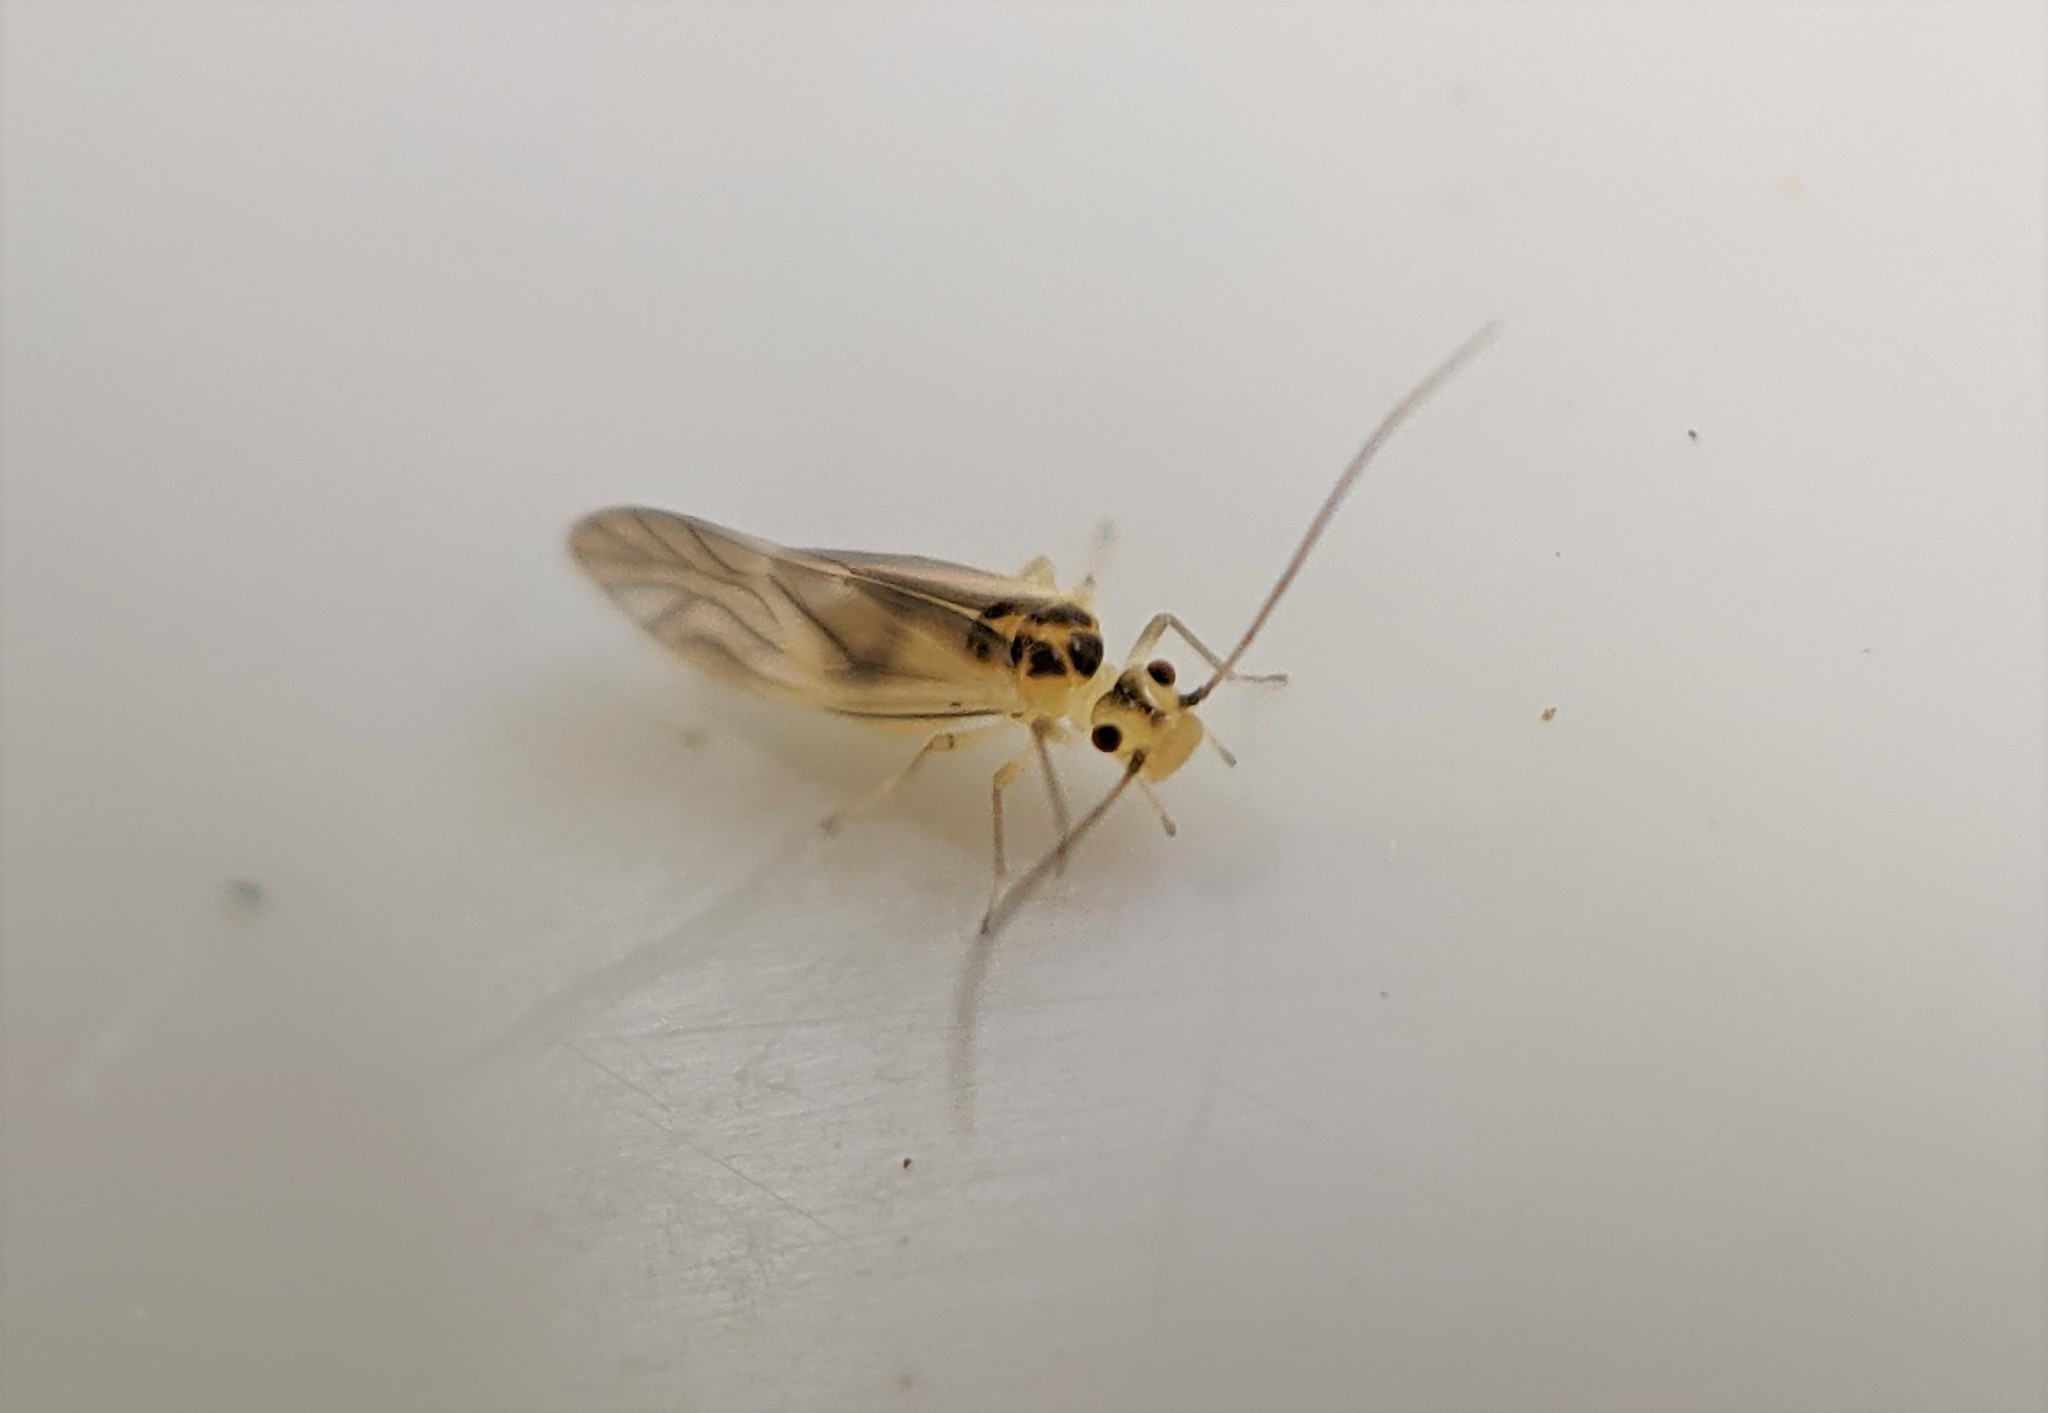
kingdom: Animalia
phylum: Arthropoda
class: Insecta
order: Psocodea
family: Caeciliusidae
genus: Valenzuela
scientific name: Valenzuela flavidus
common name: Yellow barklouse
